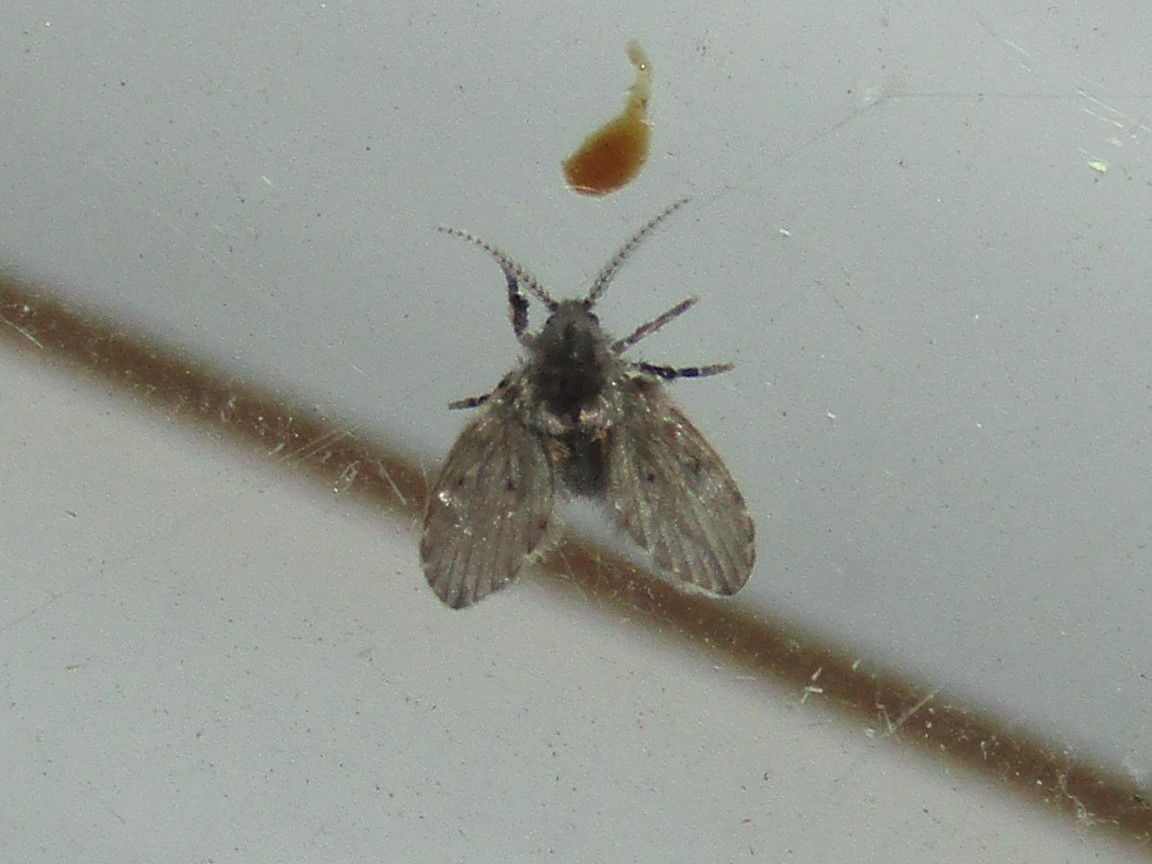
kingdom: Animalia
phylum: Arthropoda
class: Insecta
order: Diptera
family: Psychodidae
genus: Clogmia
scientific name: Clogmia albipunctatus
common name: White-spotted moth fly
